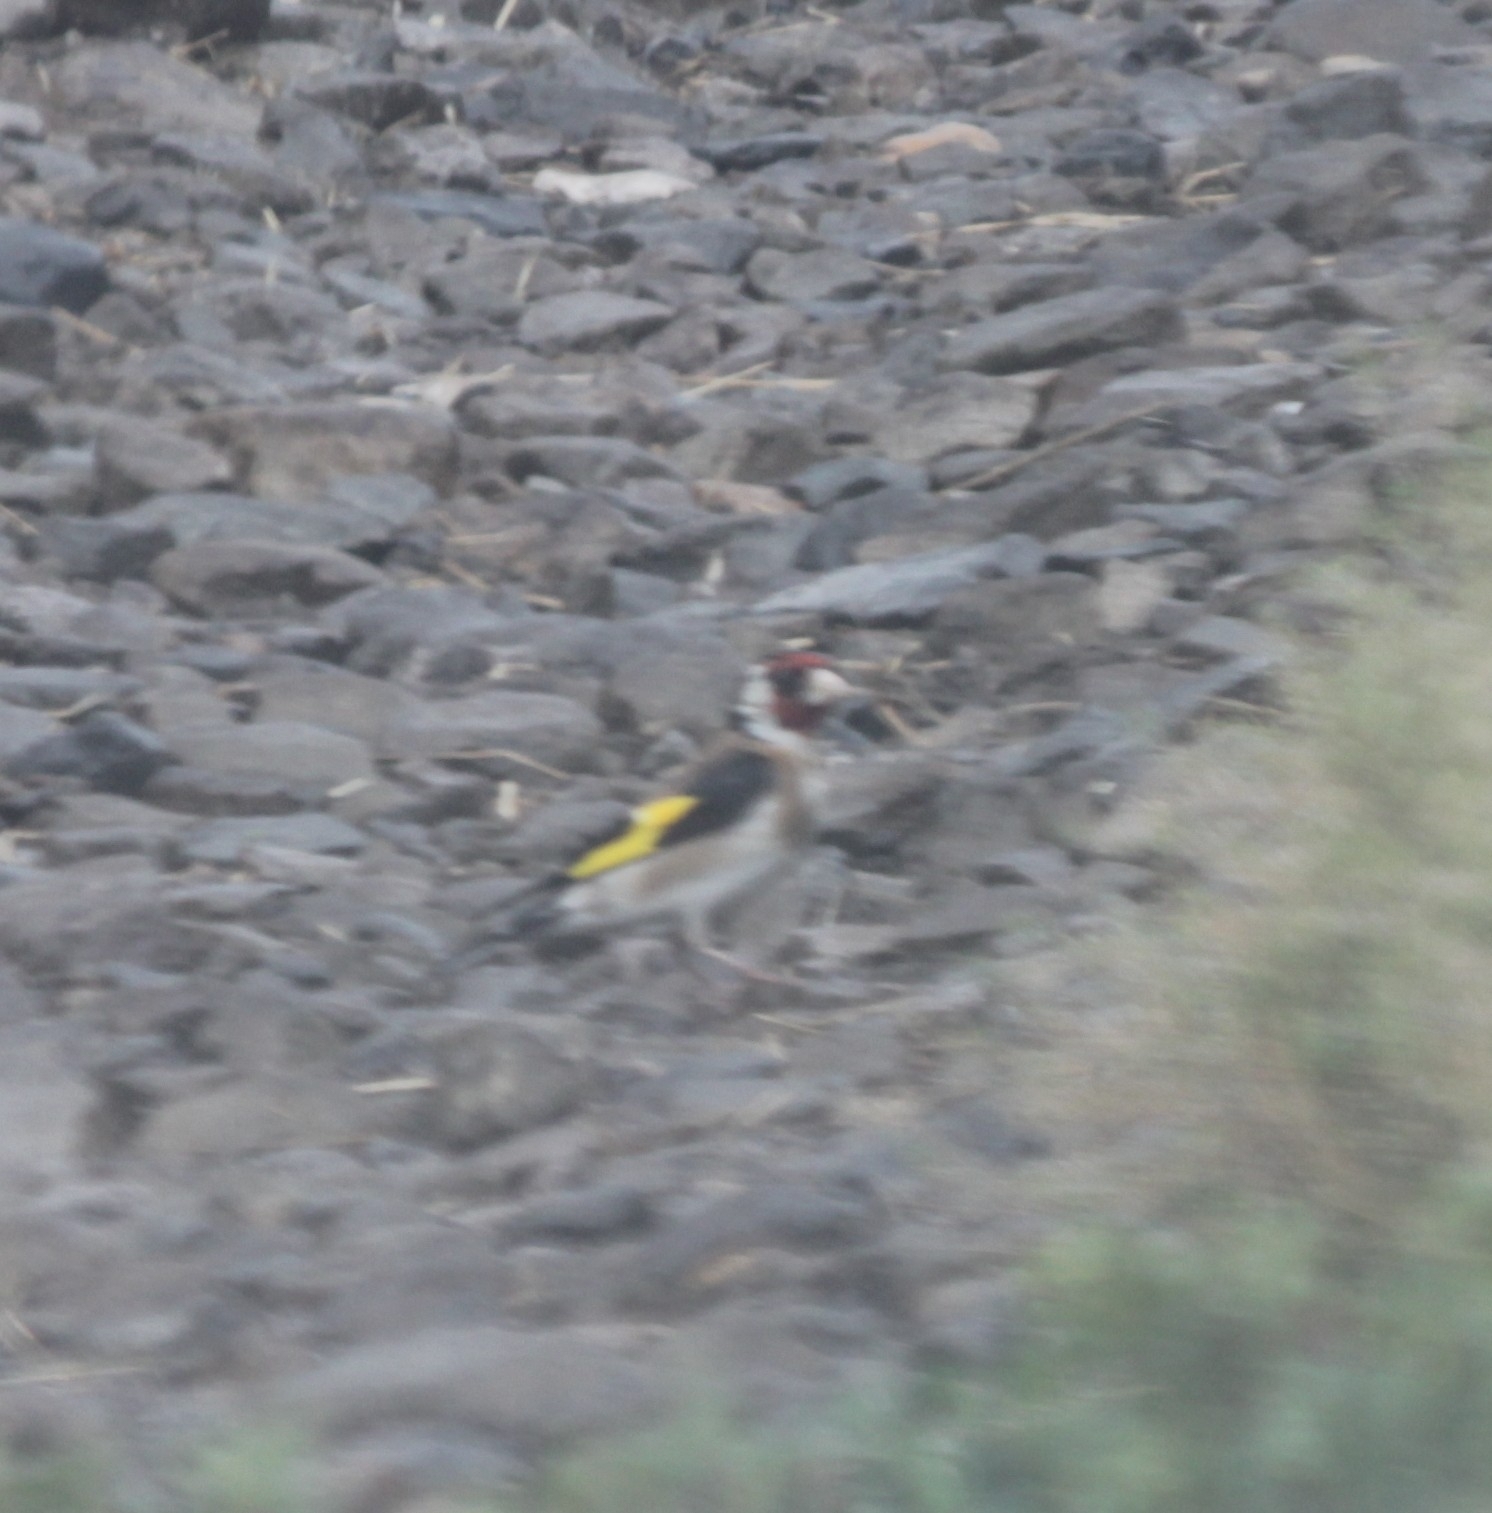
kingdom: Animalia
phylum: Chordata
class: Aves
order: Passeriformes
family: Fringillidae
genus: Carduelis
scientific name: Carduelis carduelis
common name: European goldfinch
